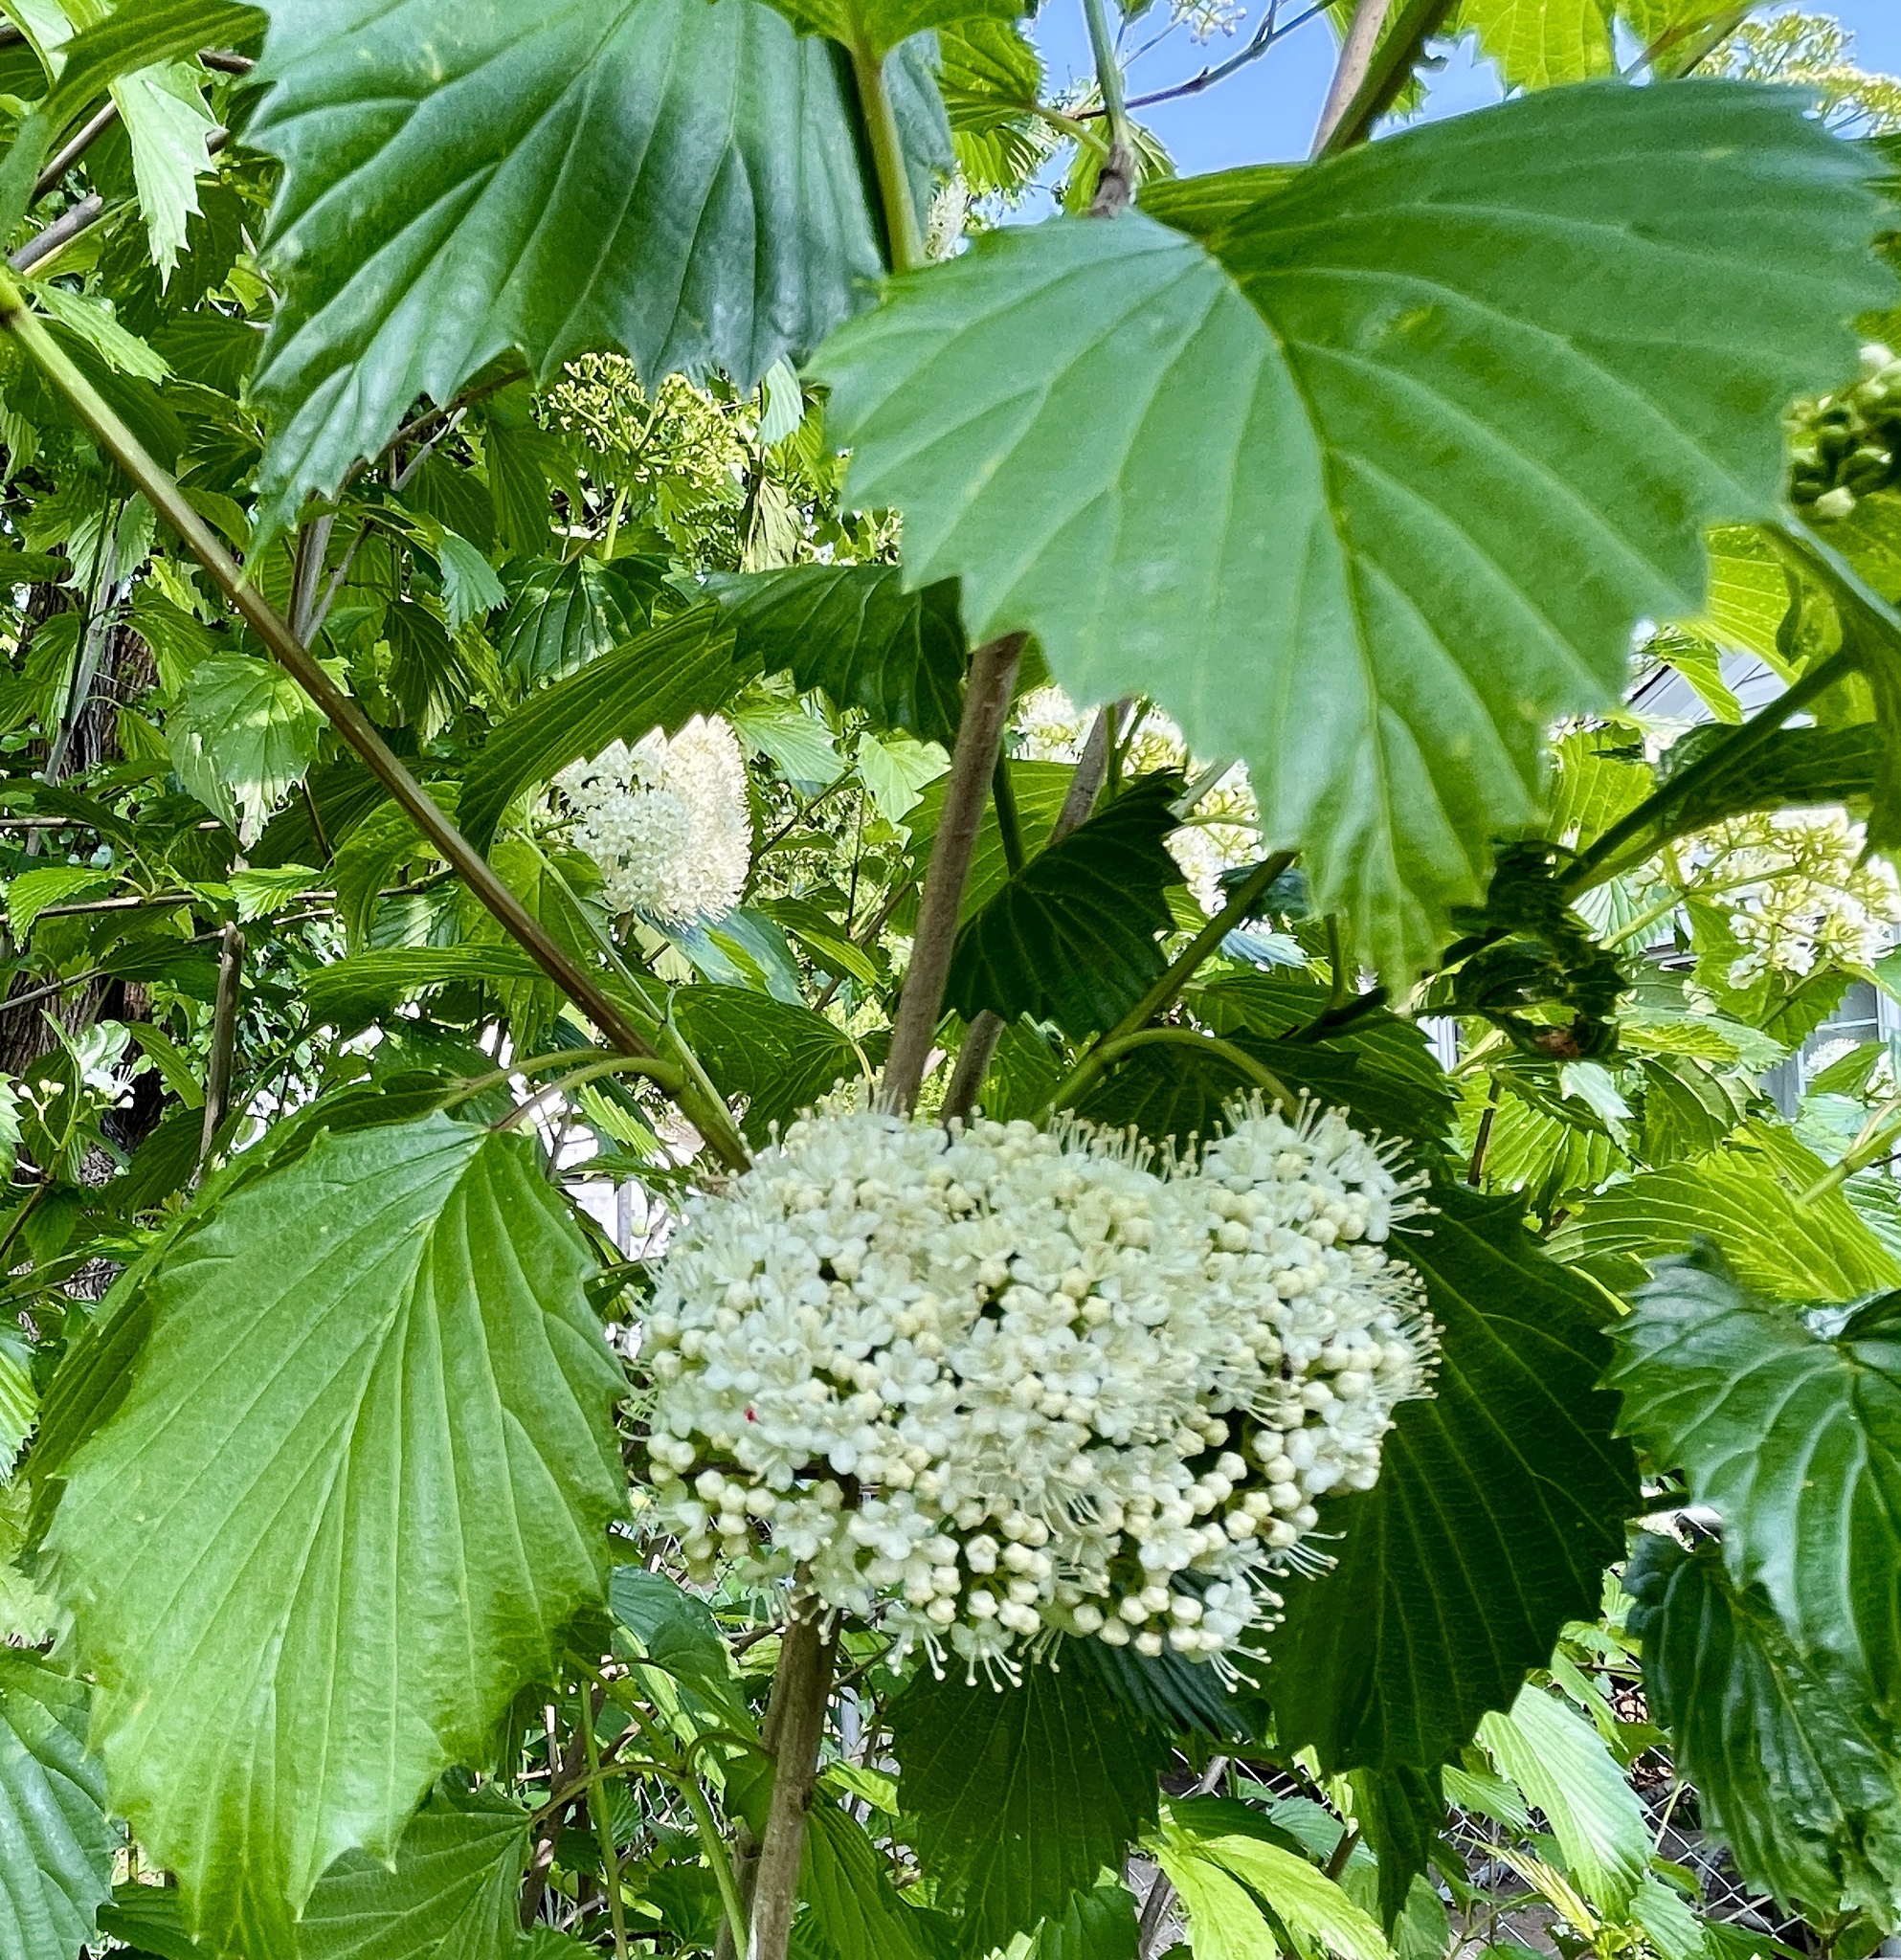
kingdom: Plantae
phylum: Tracheophyta
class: Magnoliopsida
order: Dipsacales
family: Viburnaceae
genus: Viburnum
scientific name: Viburnum dentatum
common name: Arrow-wood
